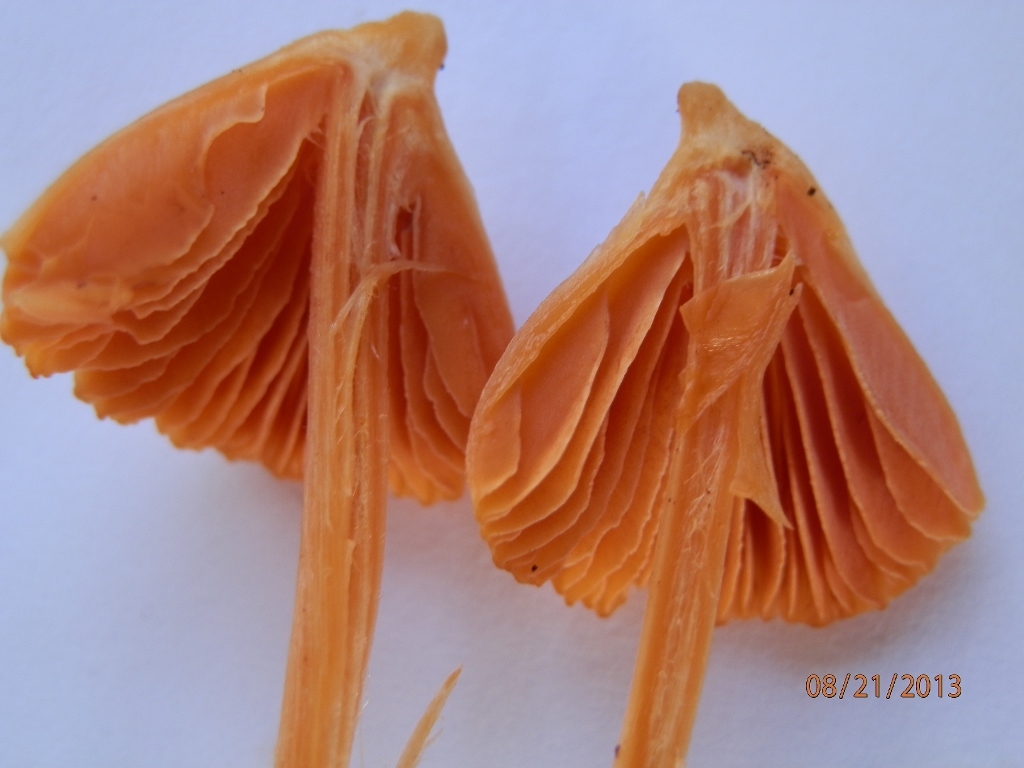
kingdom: Fungi
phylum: Basidiomycota
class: Agaricomycetes
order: Agaricales
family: Entolomataceae
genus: Entoloma
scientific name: Entoloma quadratum
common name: Salmon pinkgill
